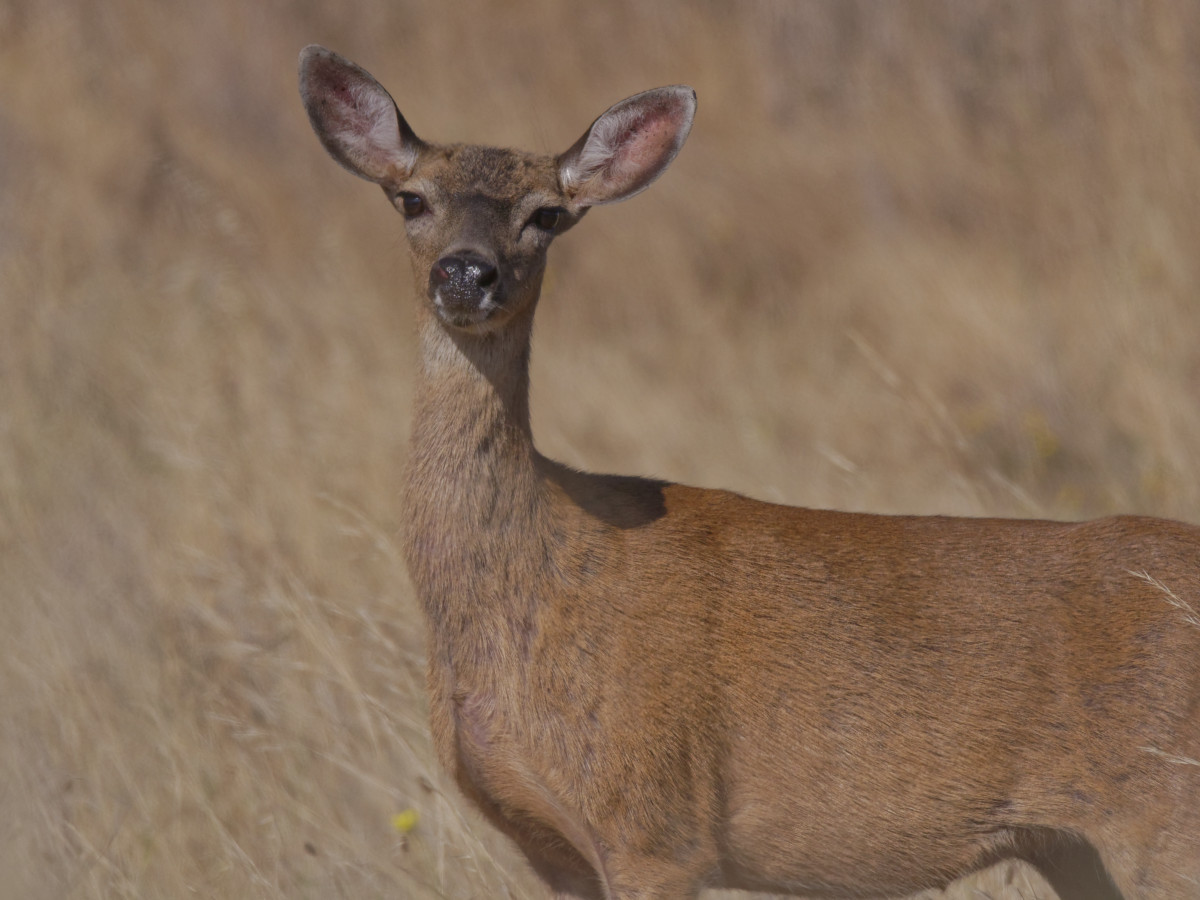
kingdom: Animalia
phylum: Chordata
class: Mammalia
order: Artiodactyla
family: Cervidae
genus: Odocoileus
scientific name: Odocoileus hemionus
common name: Mule deer
